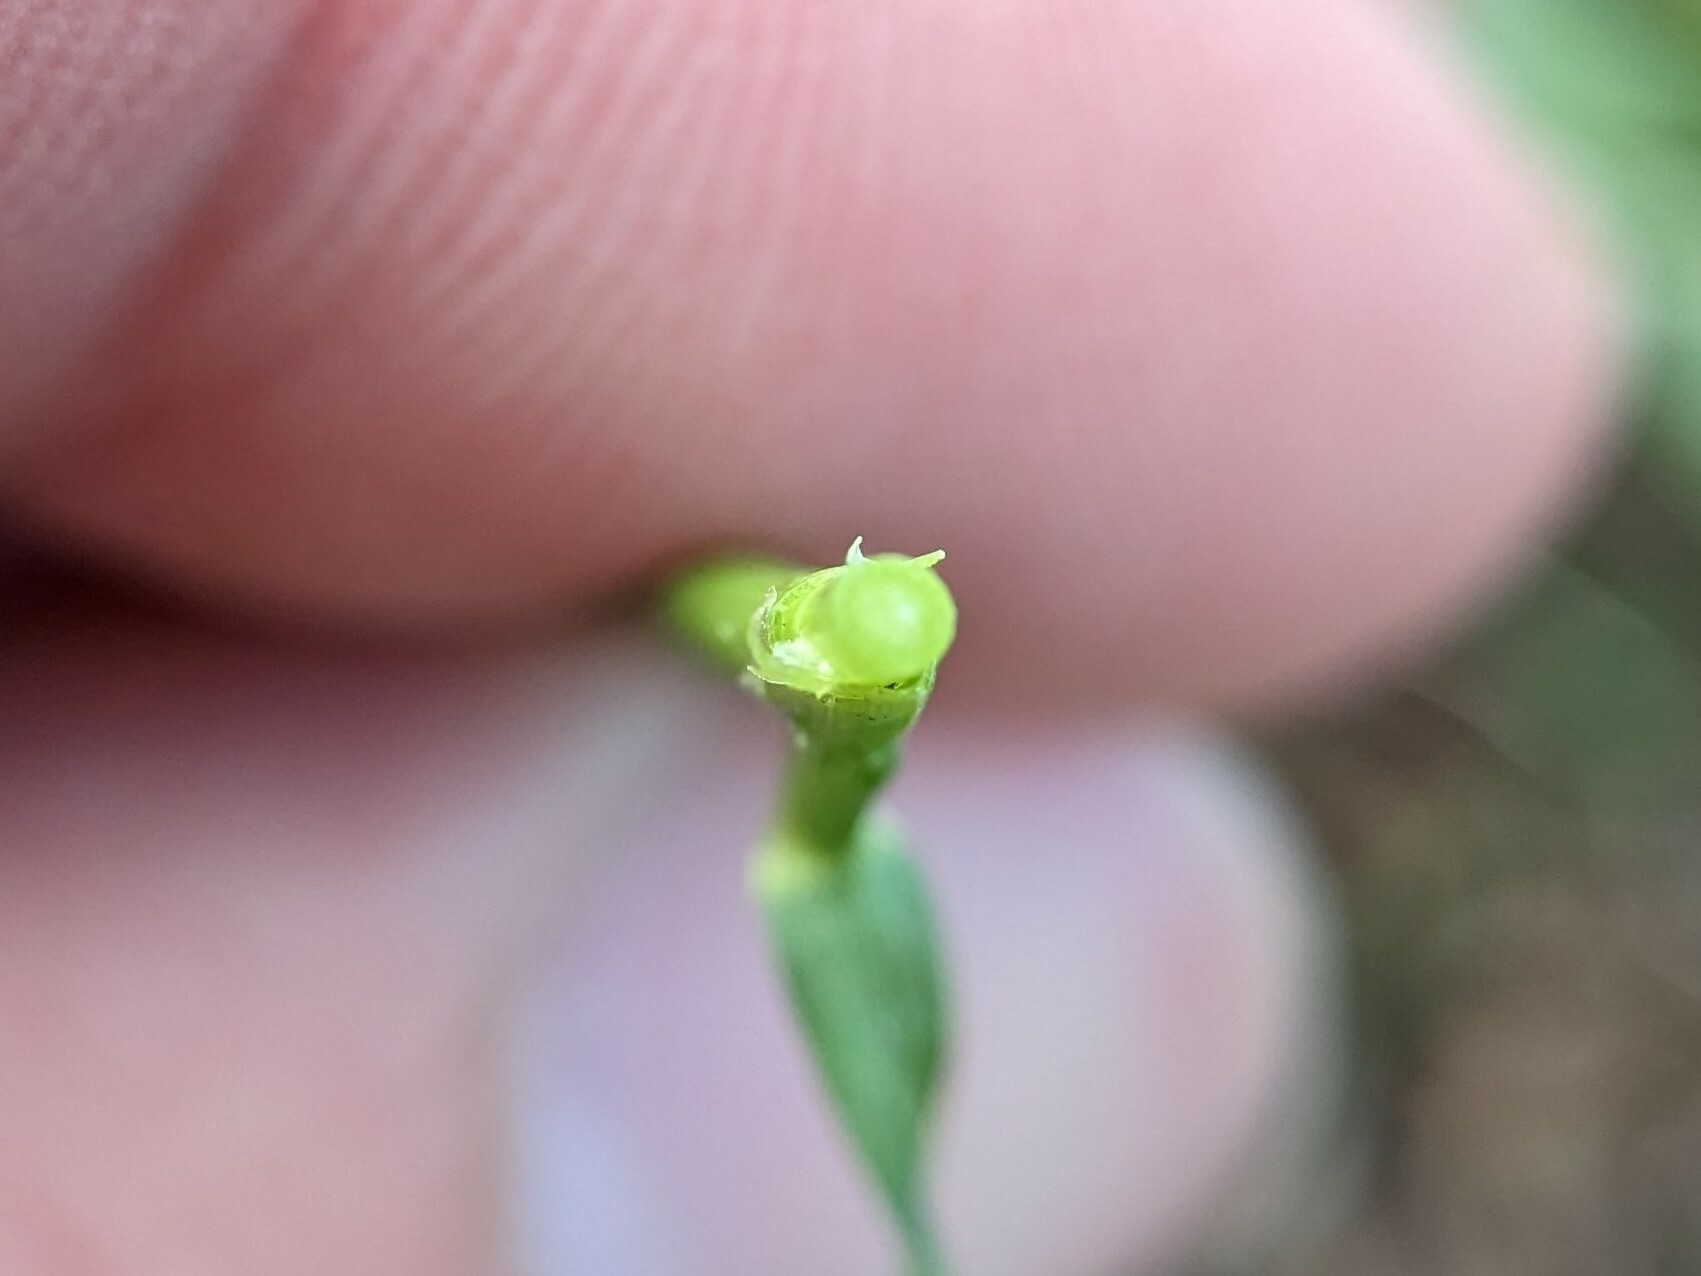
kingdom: Plantae
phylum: Tracheophyta
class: Liliopsida
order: Poales
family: Poaceae
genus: Poa
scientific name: Poa pratensis
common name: Kentucky bluegrass
